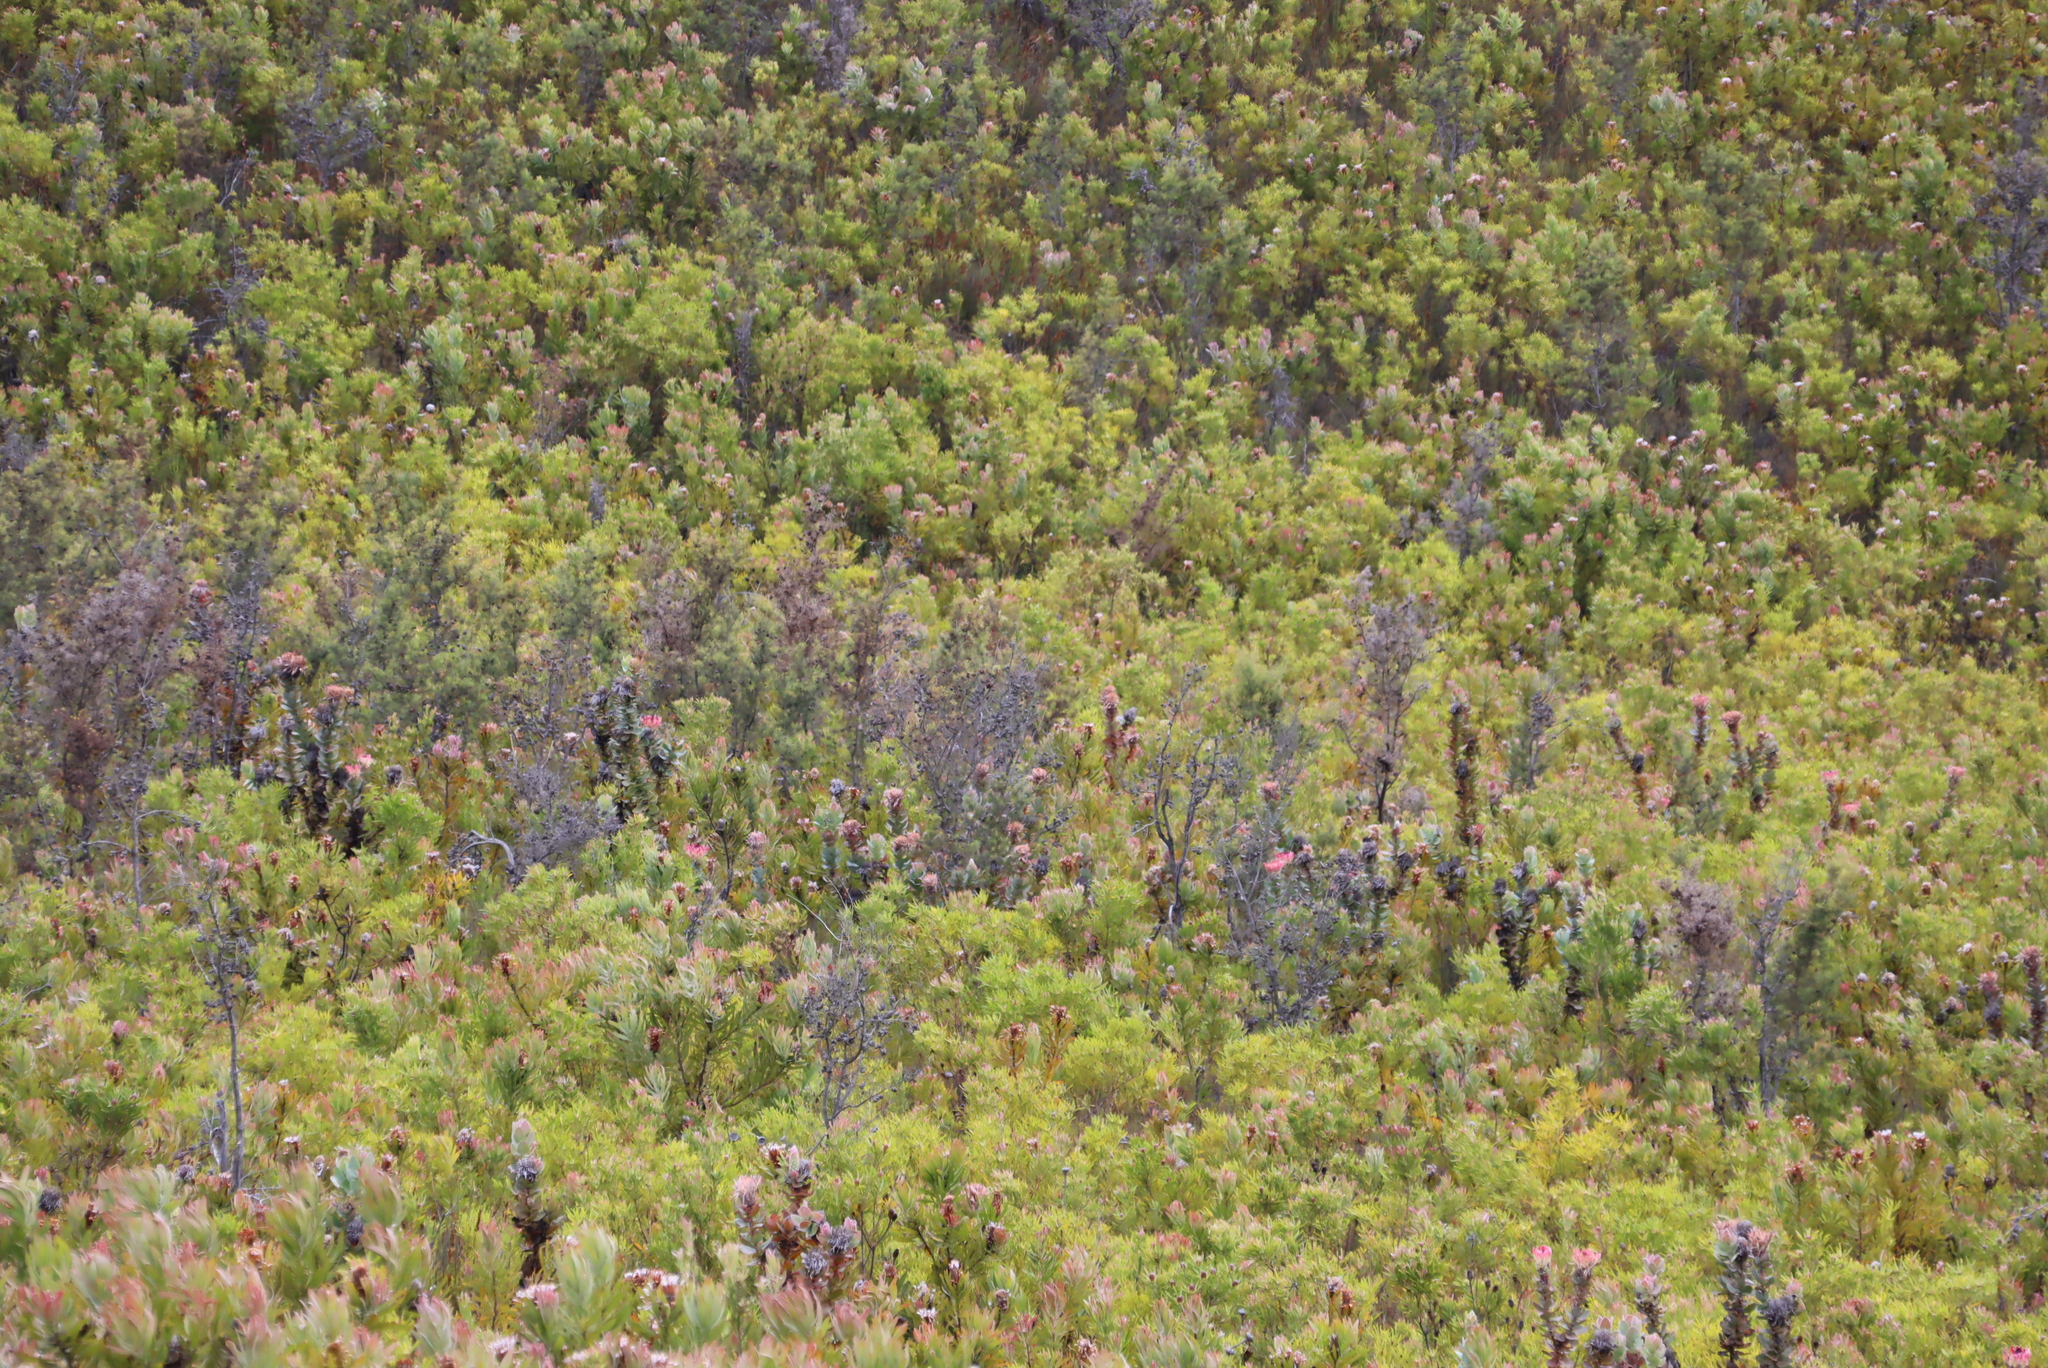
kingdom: Plantae
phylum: Tracheophyta
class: Magnoliopsida
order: Proteales
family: Proteaceae
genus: Hakea
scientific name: Hakea sericea
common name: Needle bush
